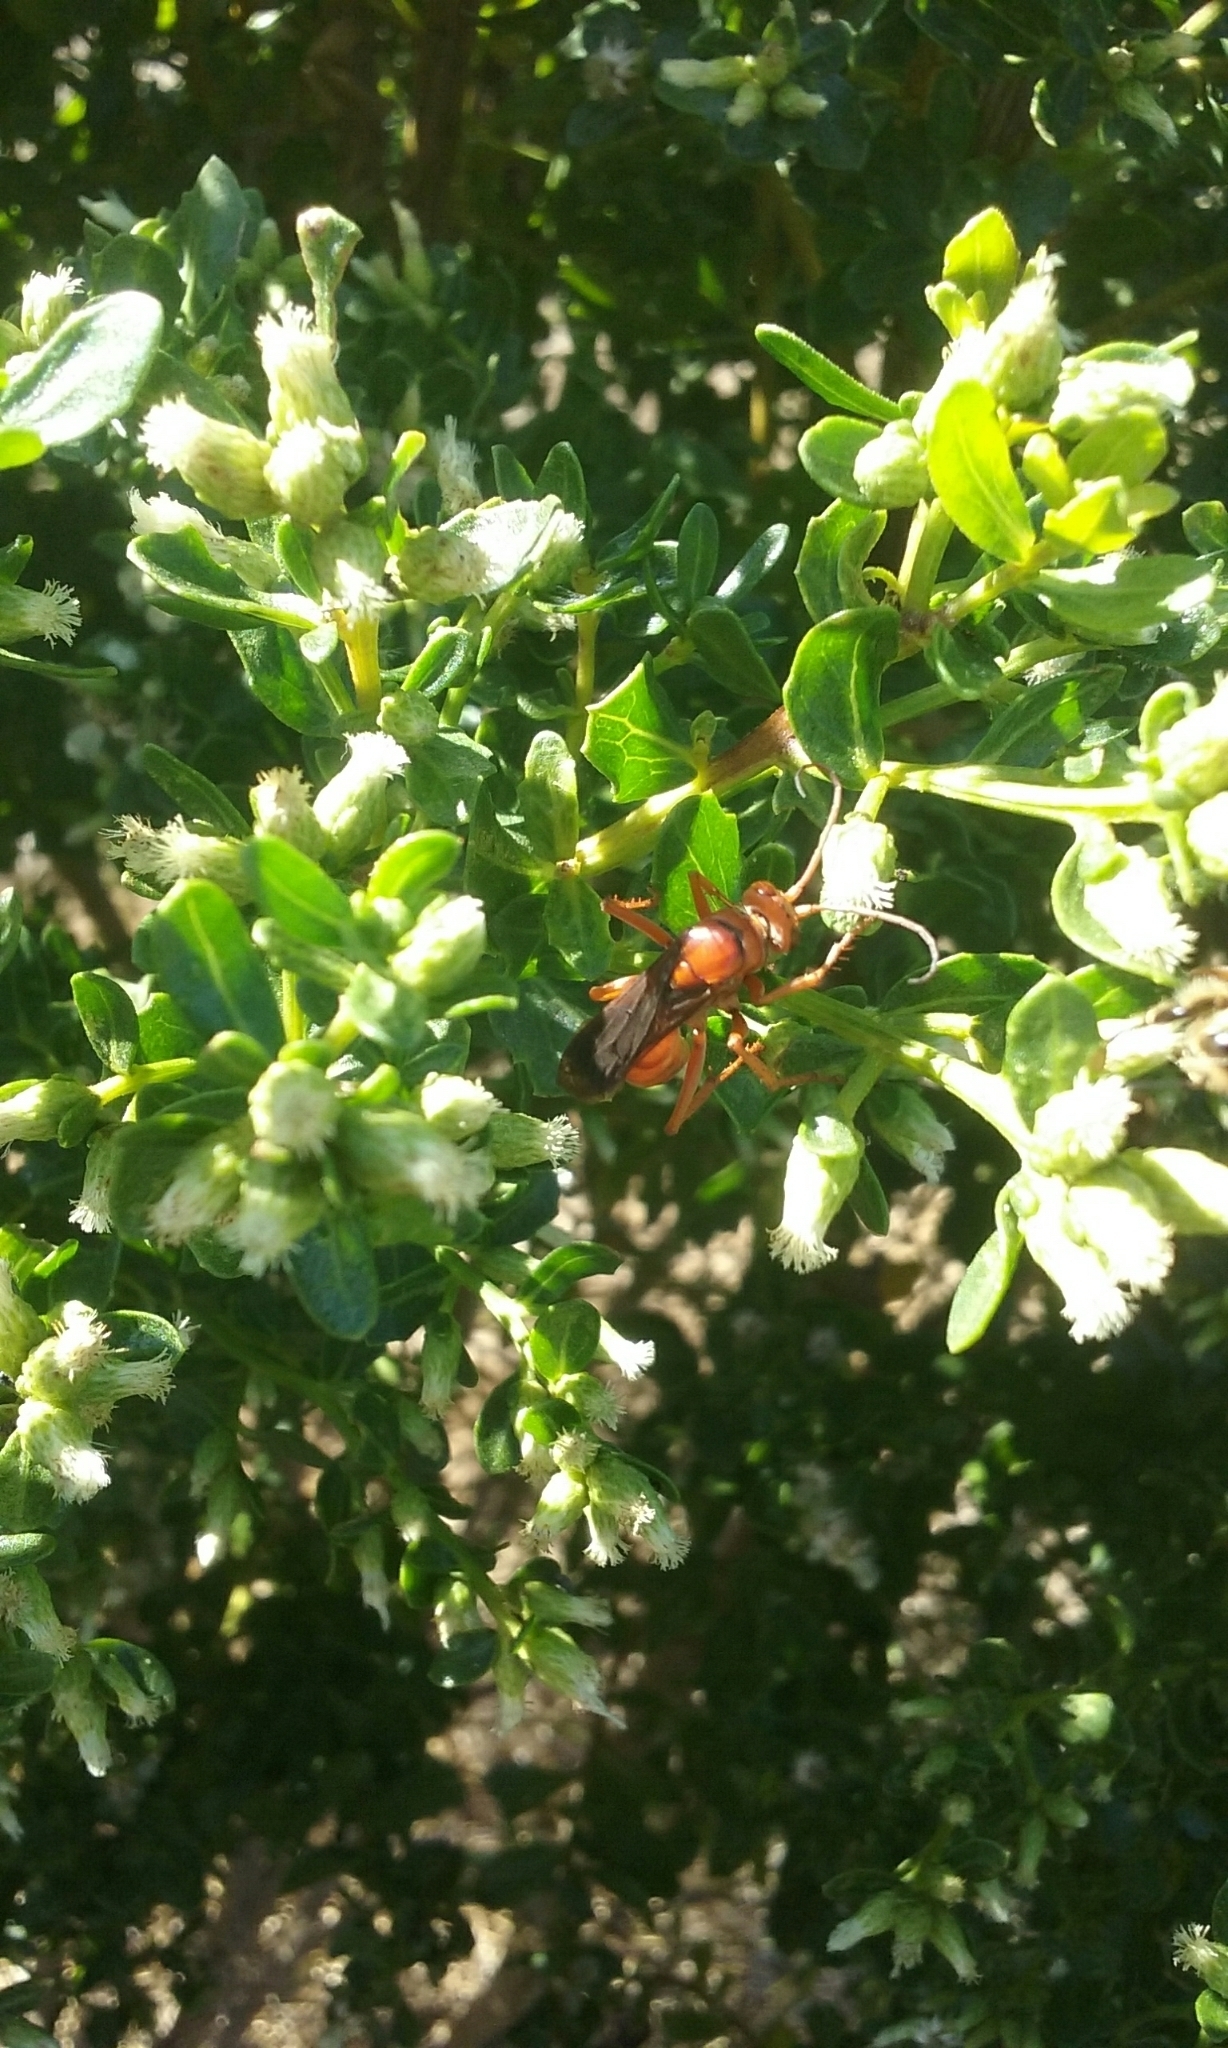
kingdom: Animalia
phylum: Arthropoda
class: Insecta
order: Hymenoptera
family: Pompilidae
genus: Tachypompilus
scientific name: Tachypompilus unicolor
